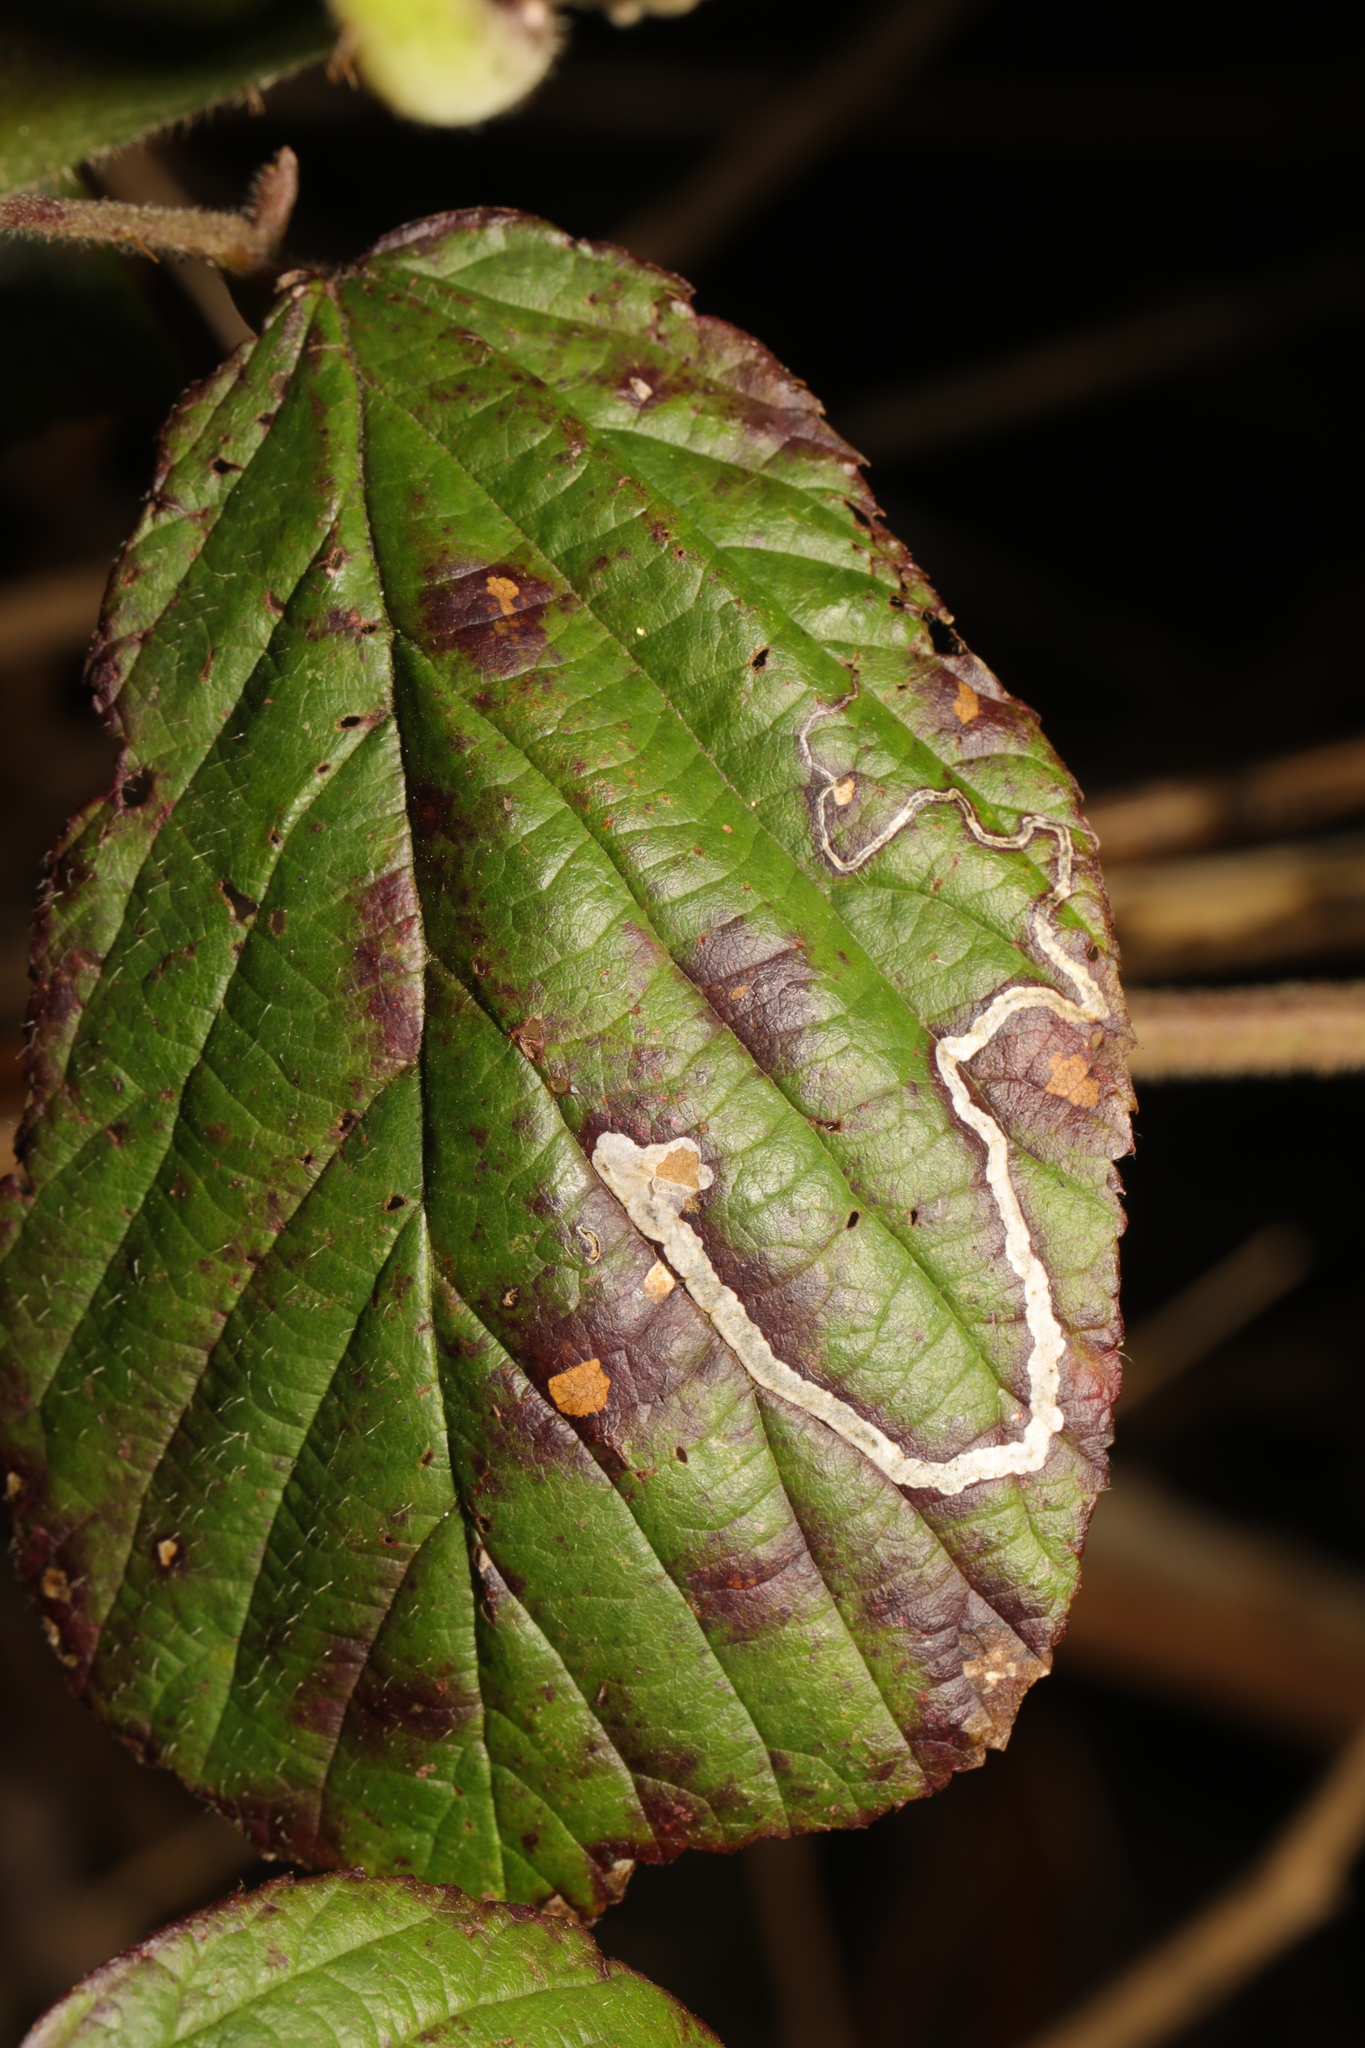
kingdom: Animalia
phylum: Arthropoda
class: Insecta
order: Lepidoptera
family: Nepticulidae
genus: Stigmella
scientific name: Stigmella aurella
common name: Golden pigmy
